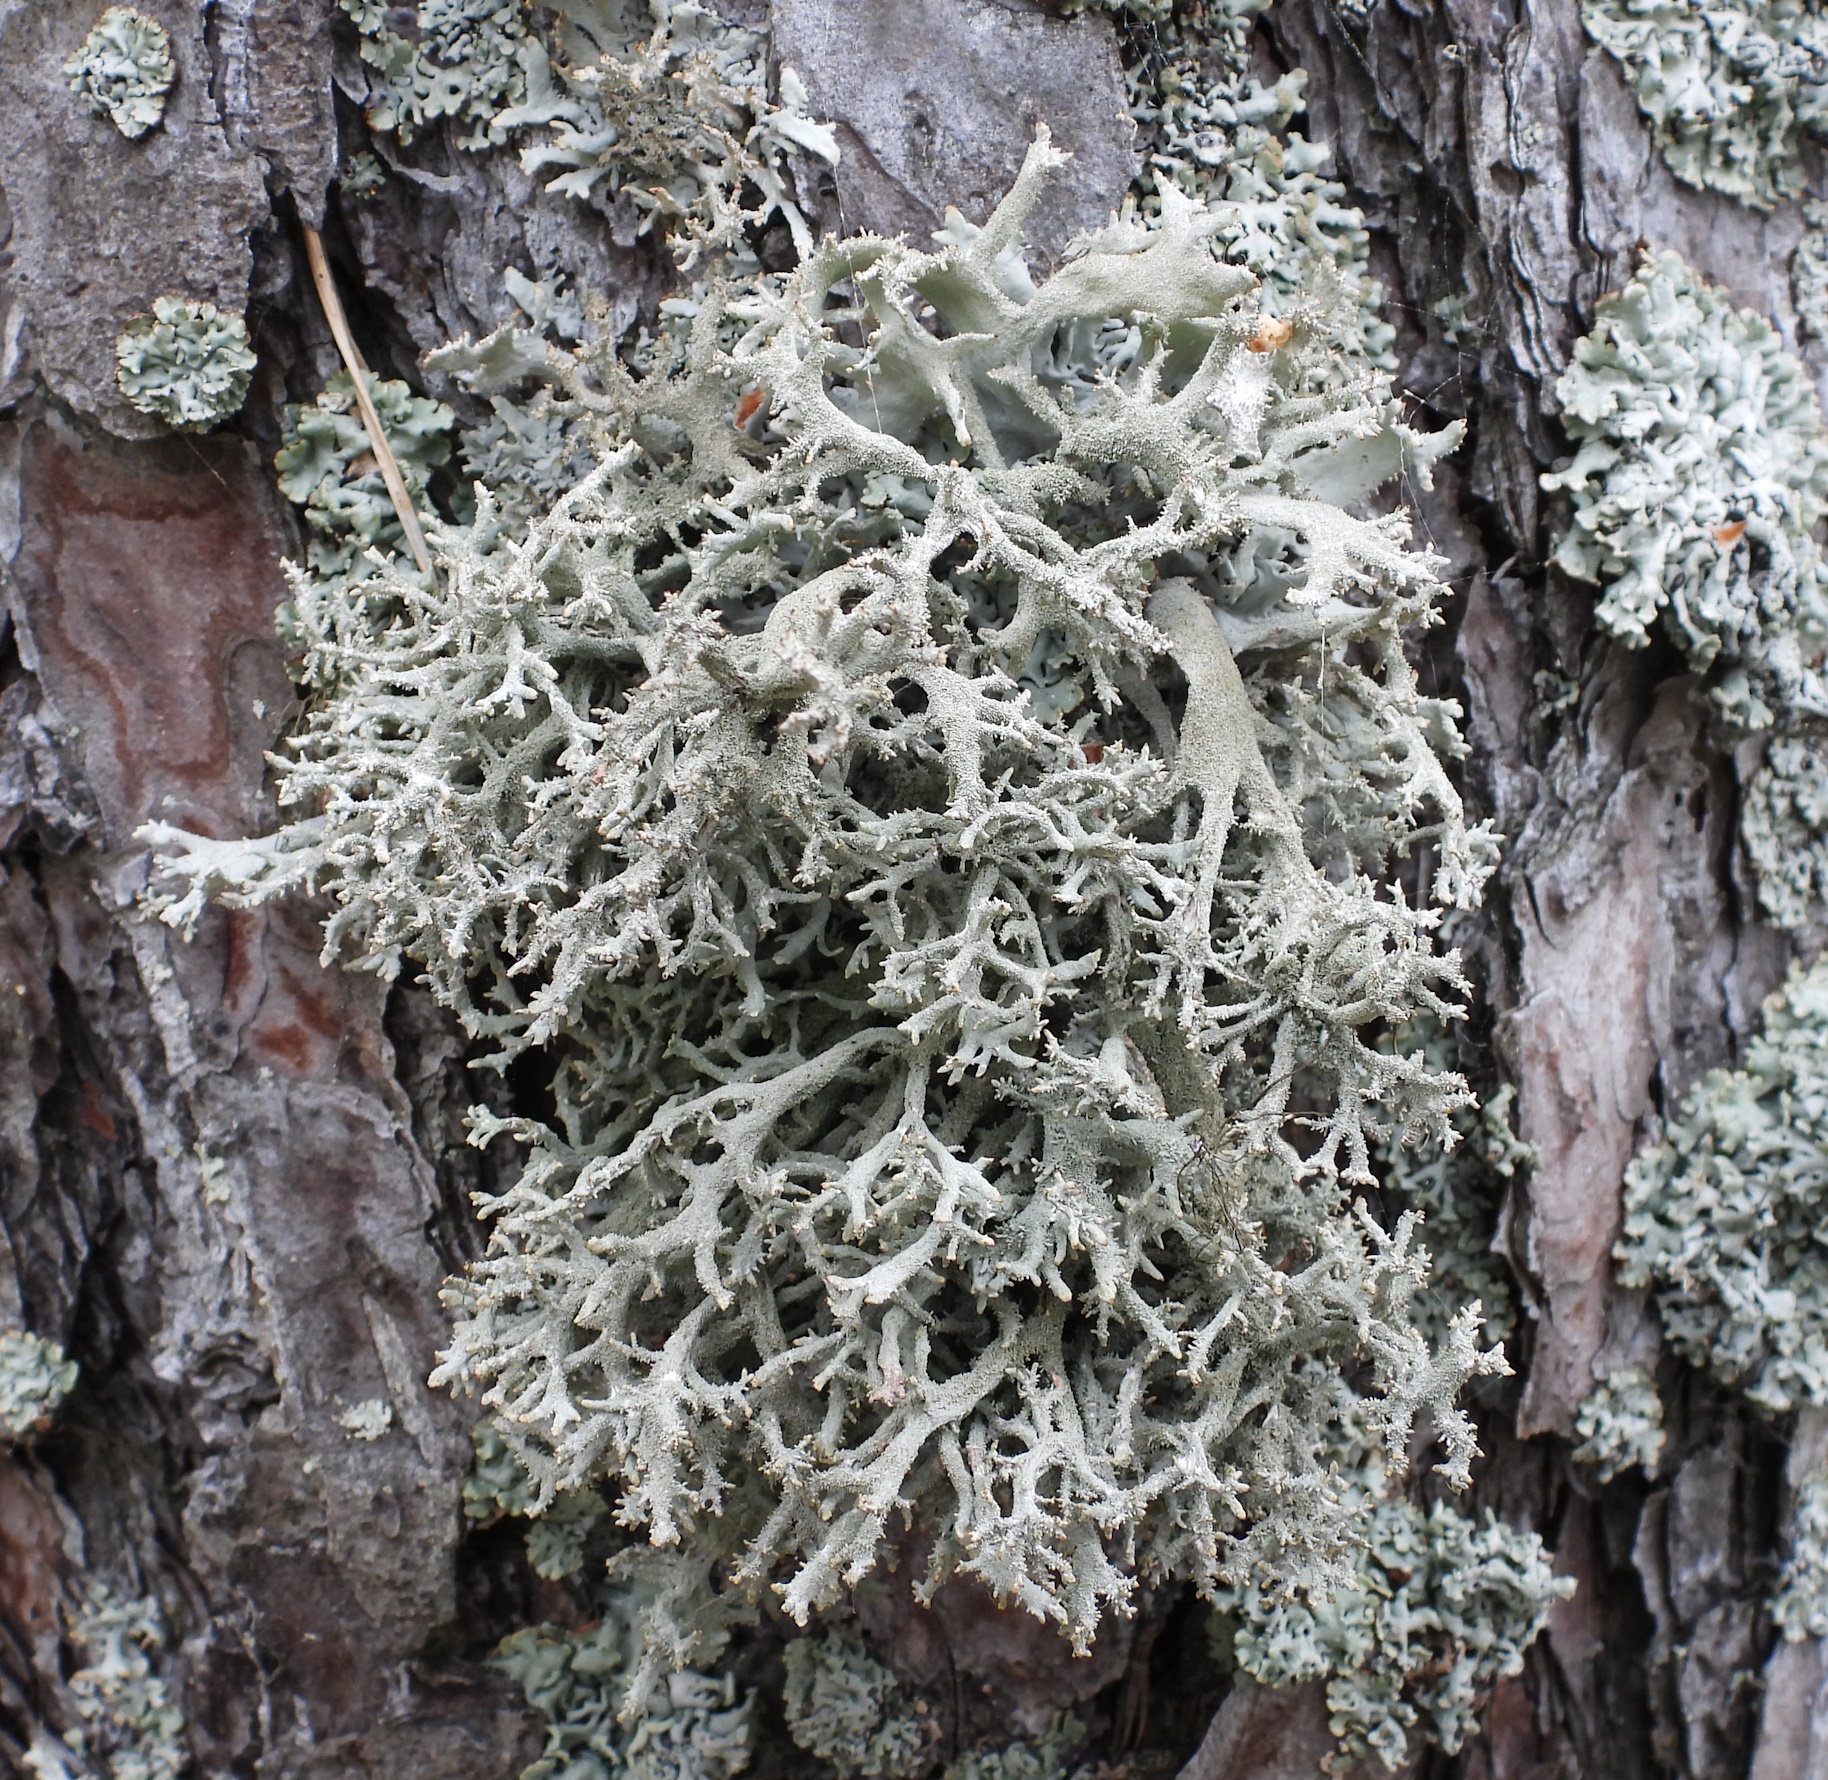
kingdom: Fungi
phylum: Ascomycota
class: Lecanoromycetes
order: Lecanorales
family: Parmeliaceae
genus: Pseudevernia
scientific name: Pseudevernia furfuracea
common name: Tree moss
